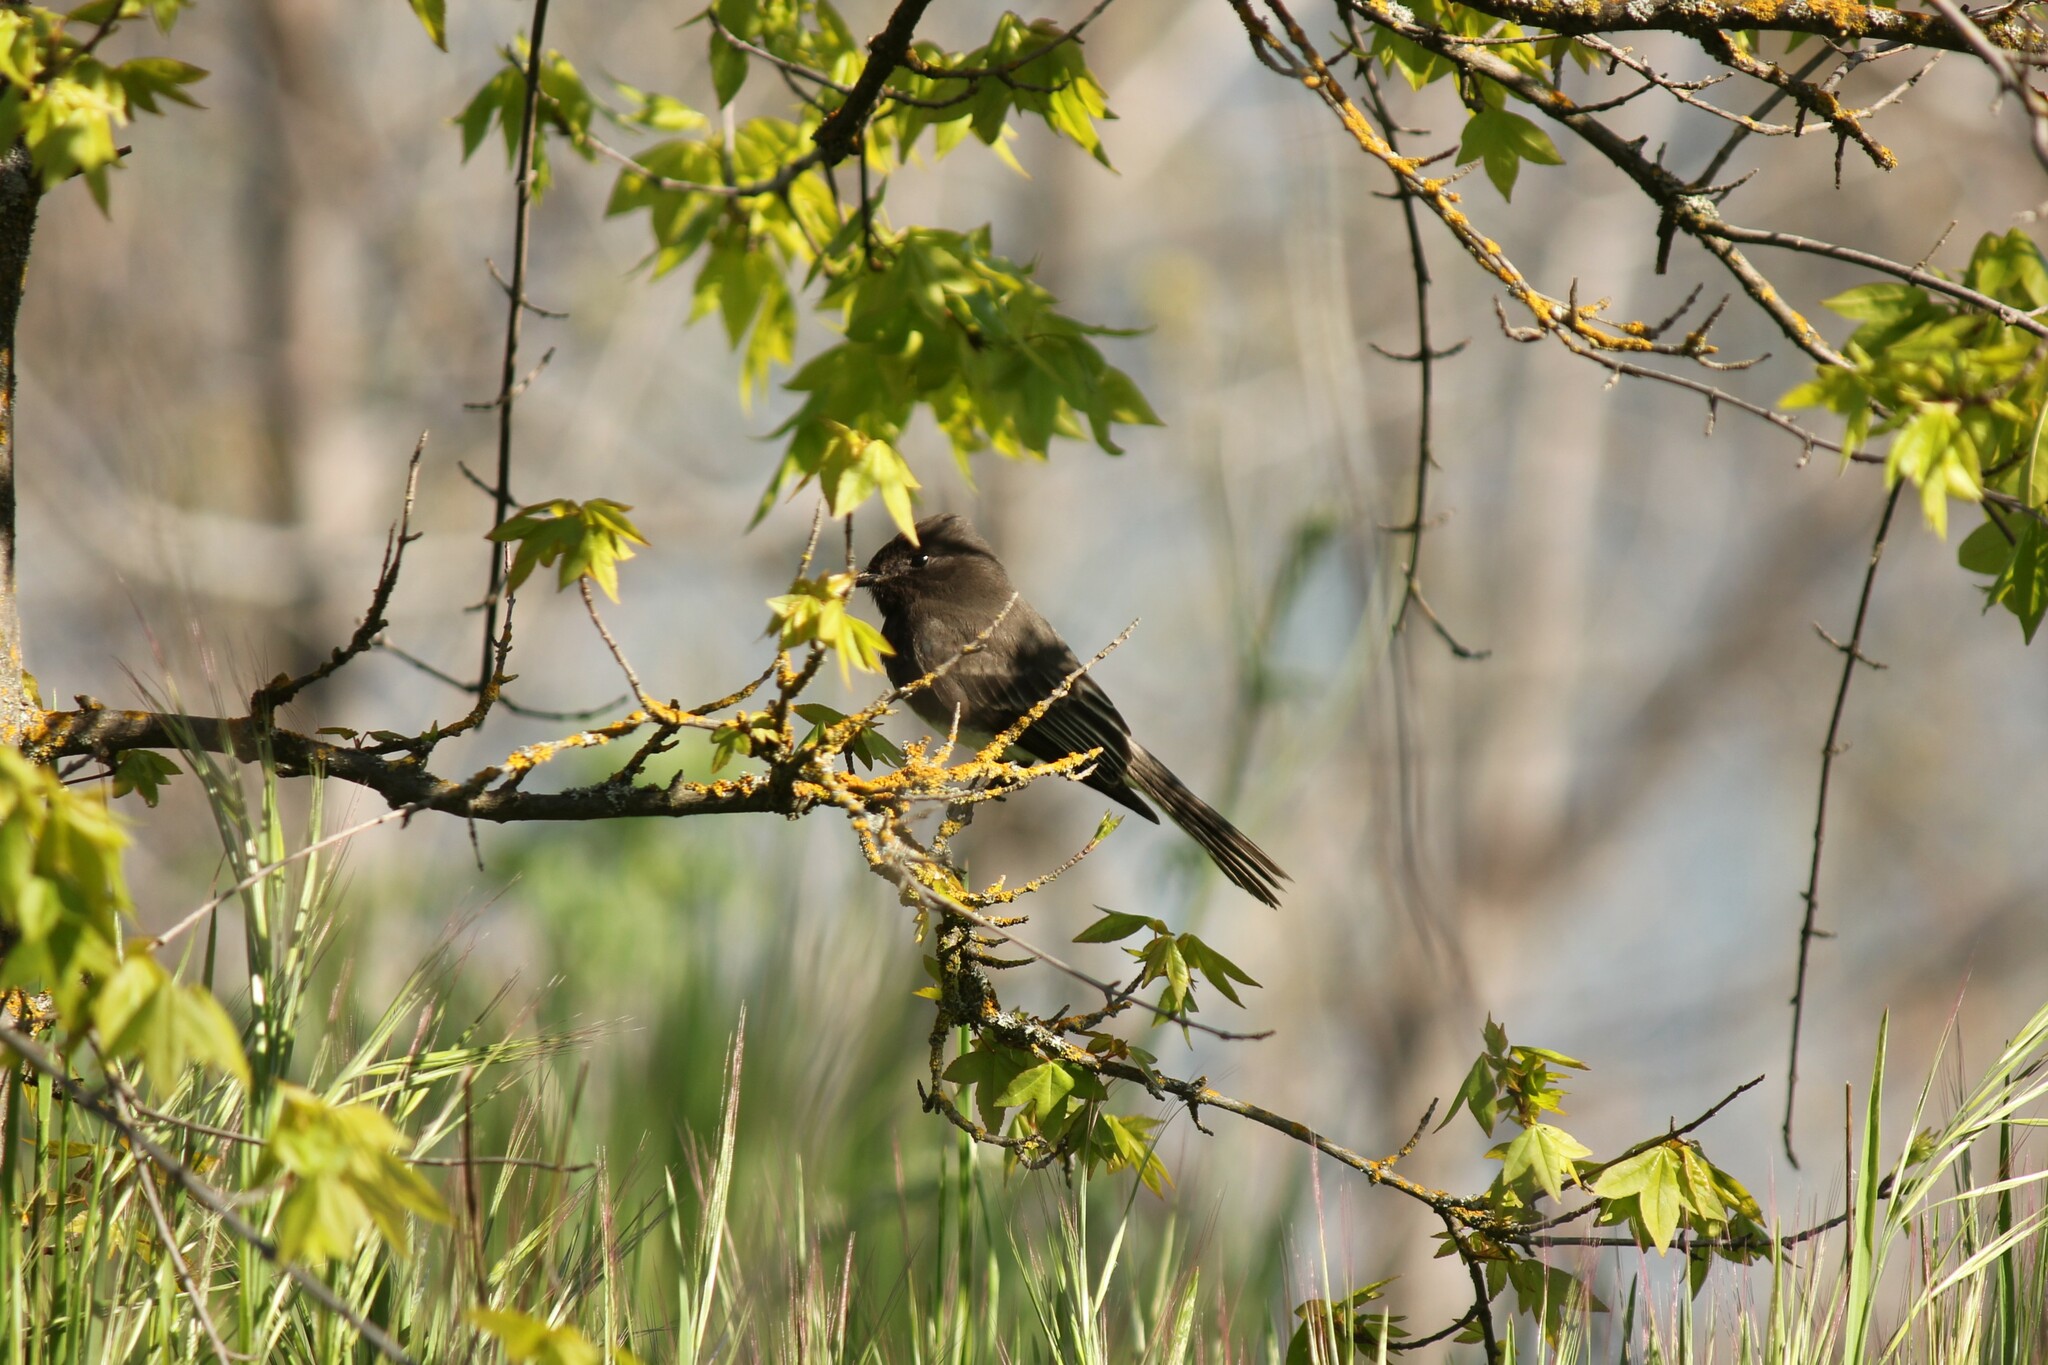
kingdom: Animalia
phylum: Chordata
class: Aves
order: Passeriformes
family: Tyrannidae
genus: Sayornis
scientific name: Sayornis nigricans
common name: Black phoebe
